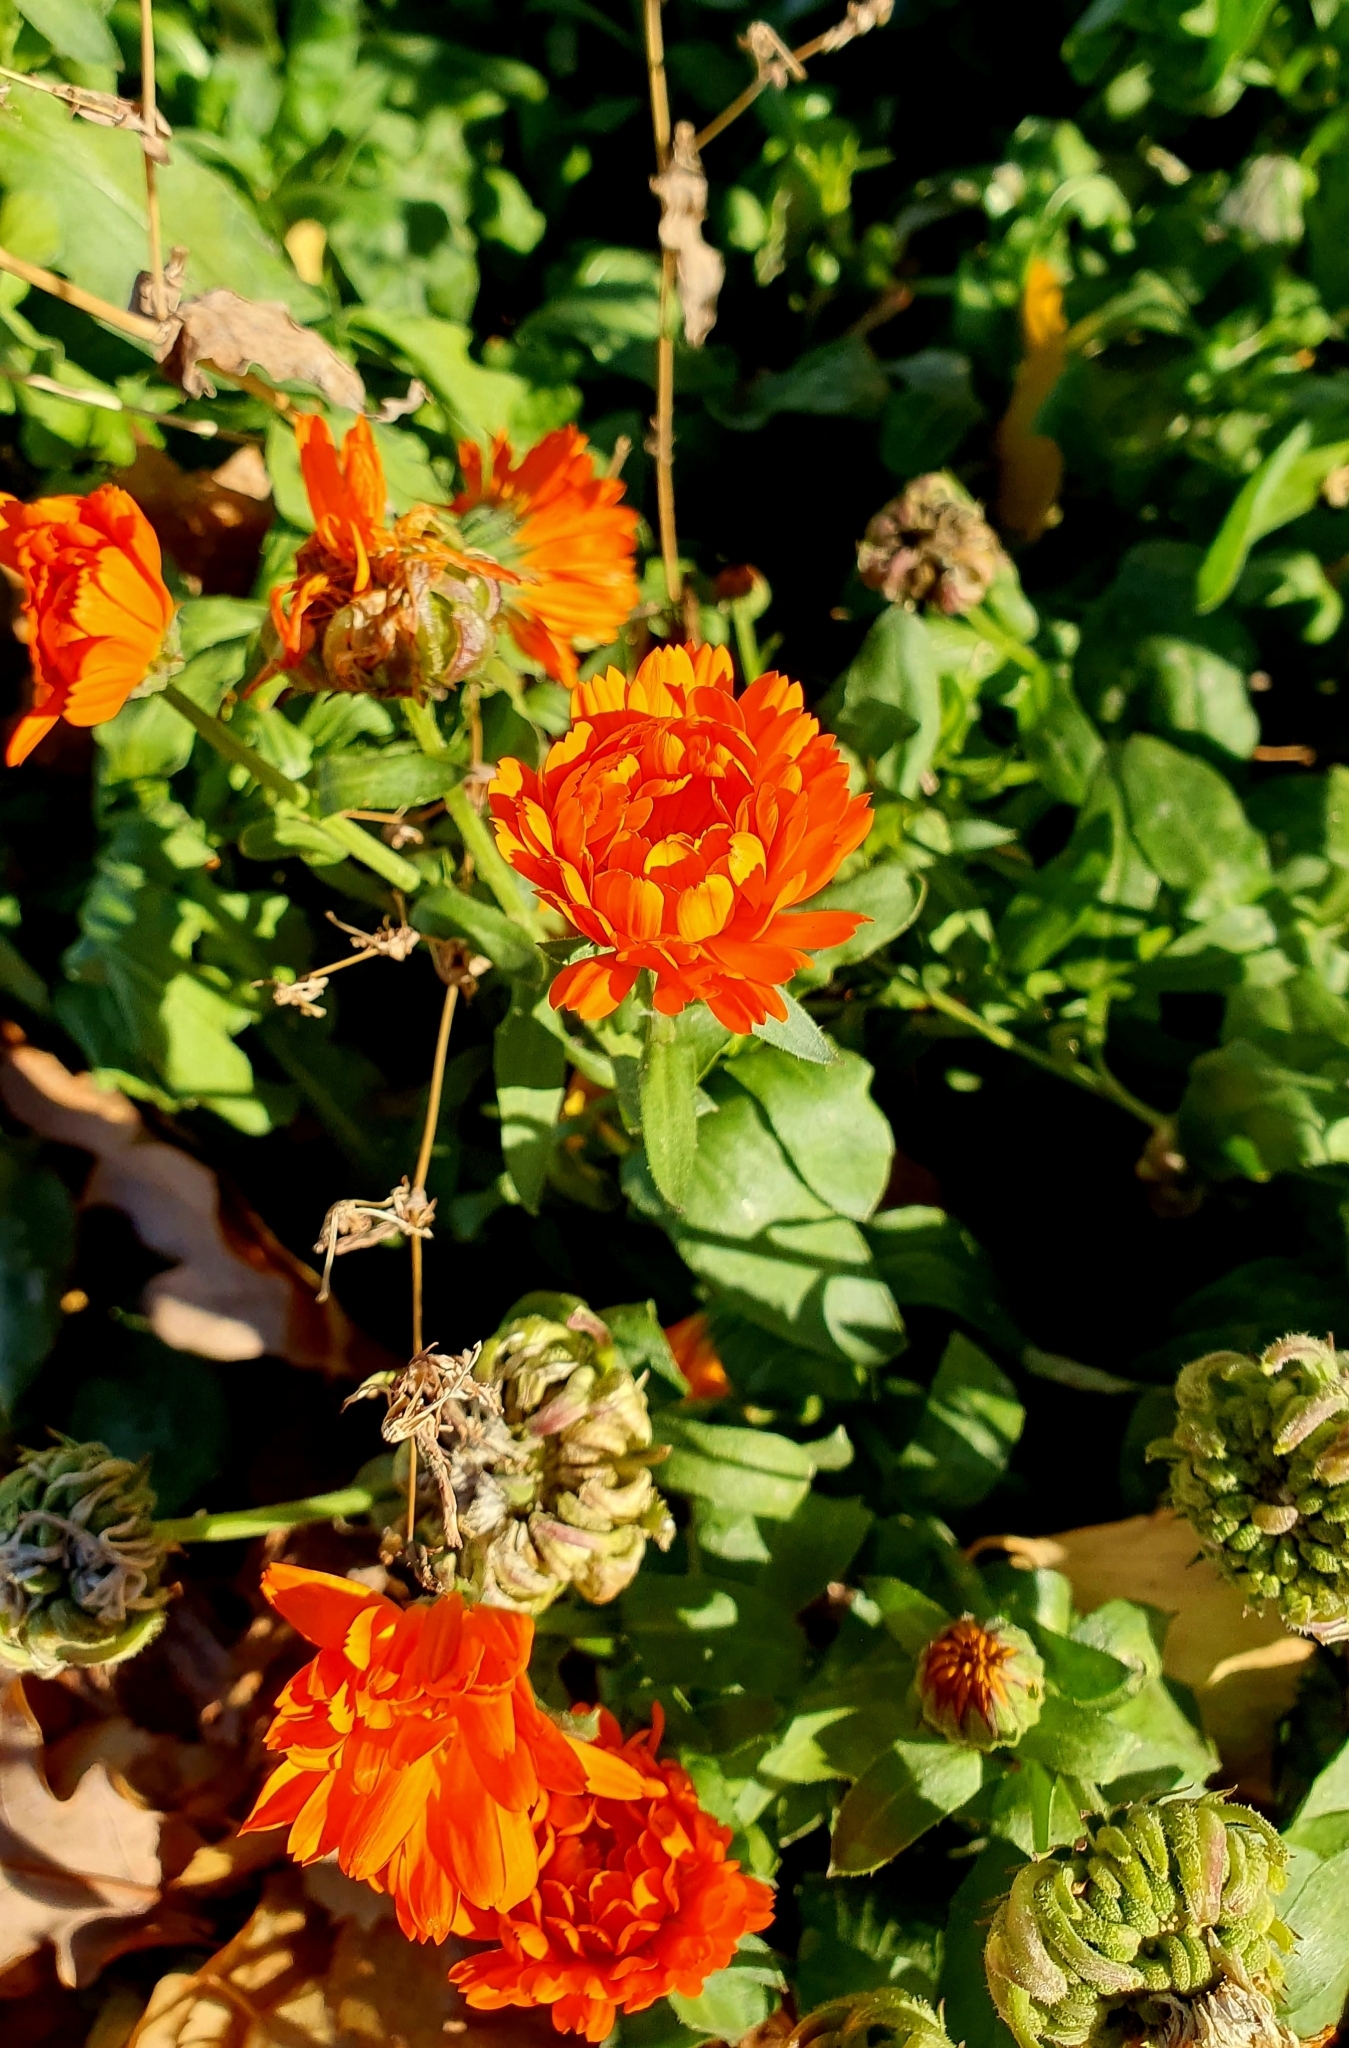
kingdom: Plantae
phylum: Tracheophyta
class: Magnoliopsida
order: Asterales
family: Asteraceae
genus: Calendula
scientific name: Calendula officinalis
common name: Pot marigold
